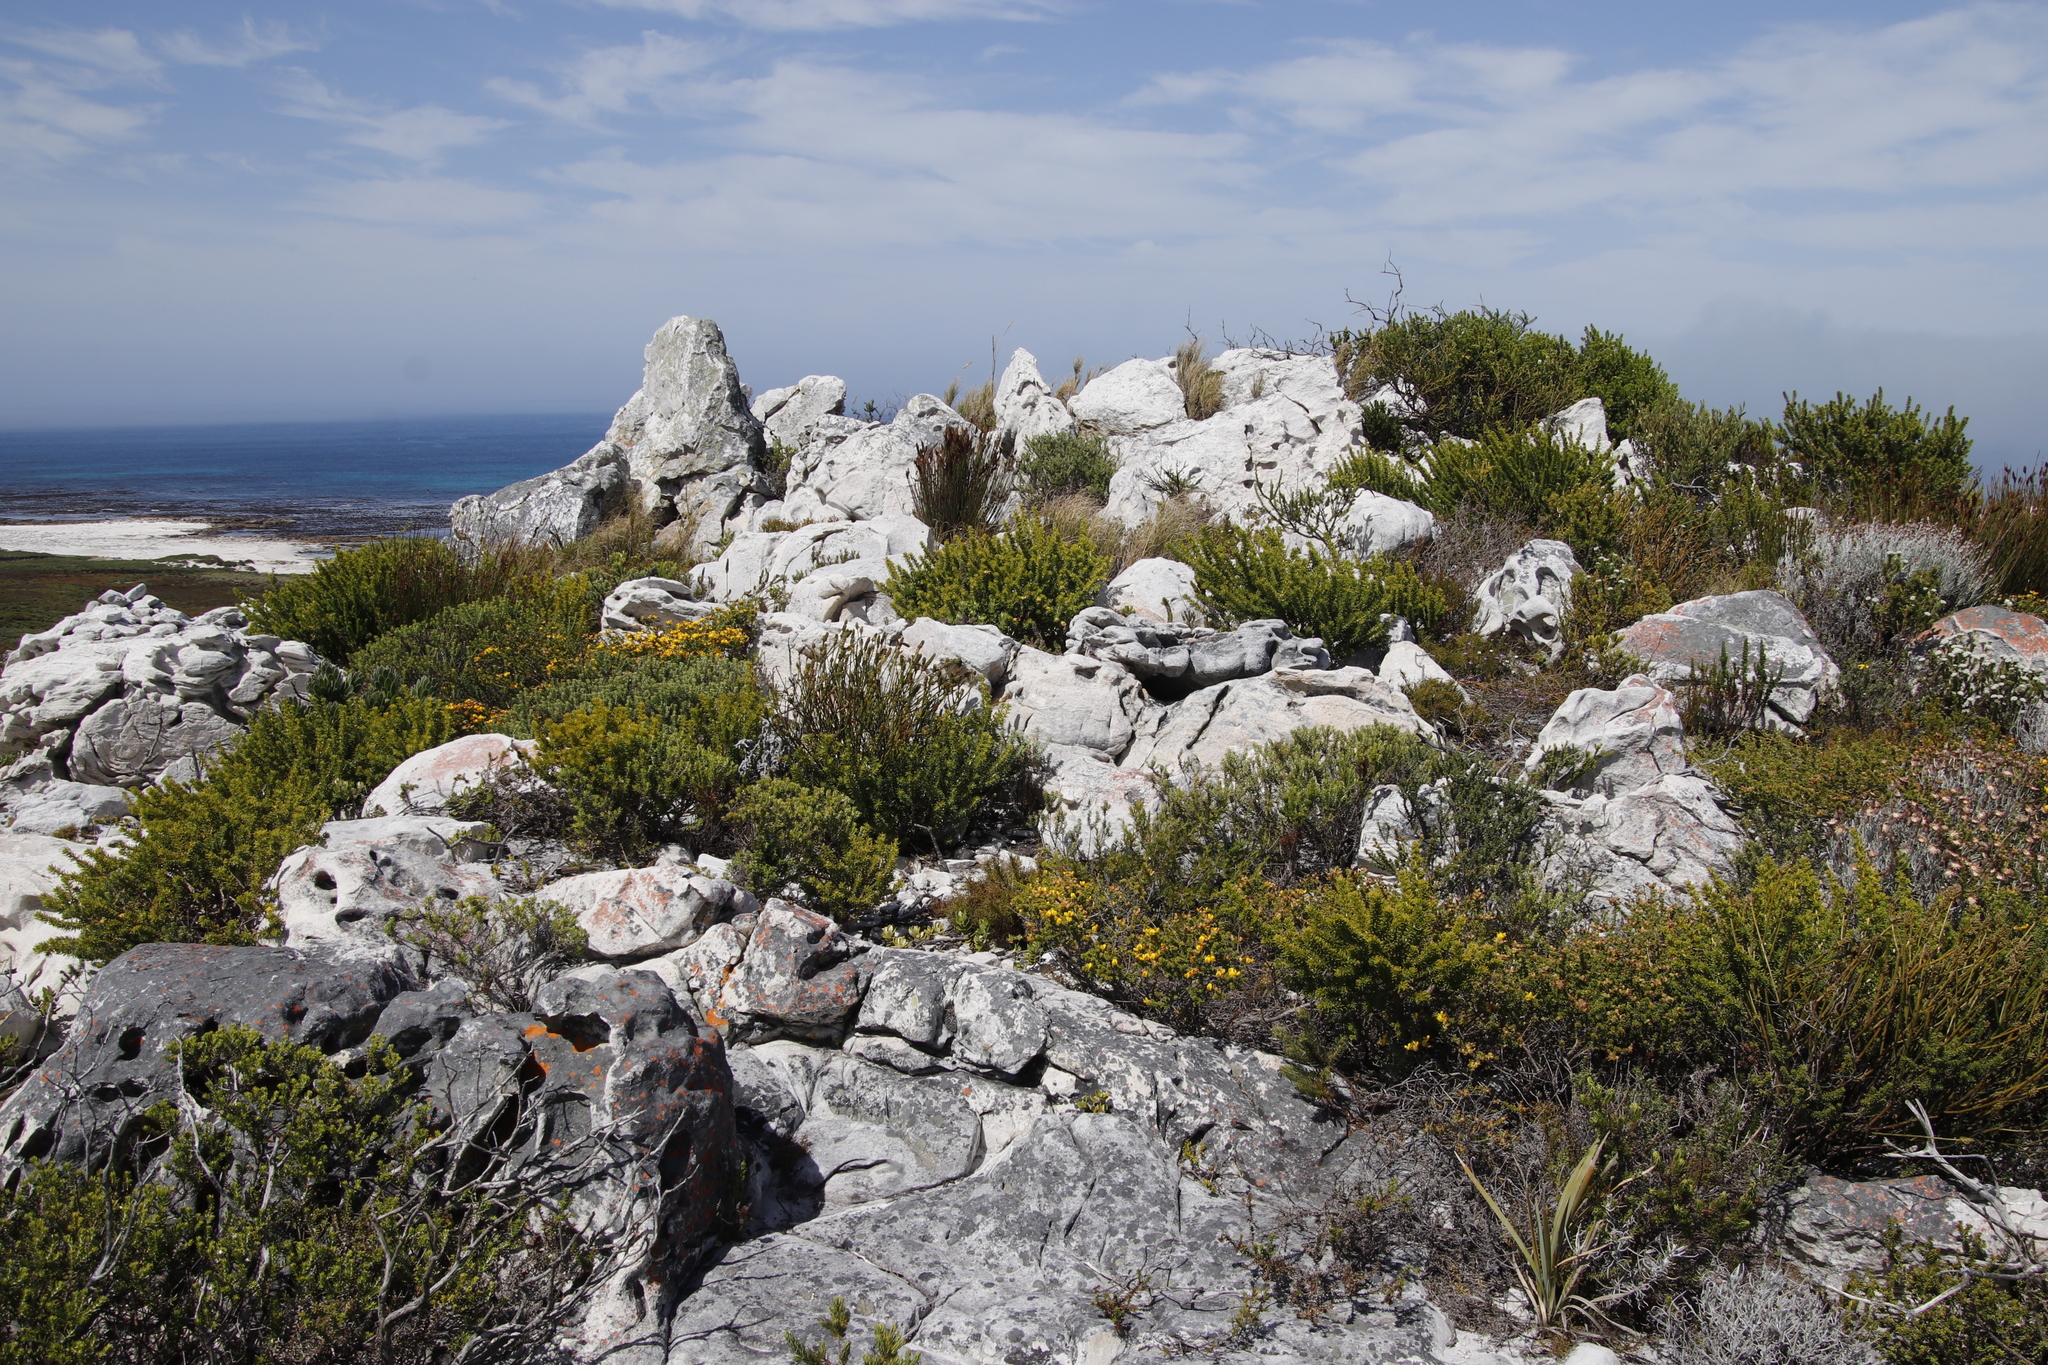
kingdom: Plantae
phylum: Tracheophyta
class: Magnoliopsida
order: Fabales
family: Fabaceae
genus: Aspalathus
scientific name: Aspalathus carnosa
